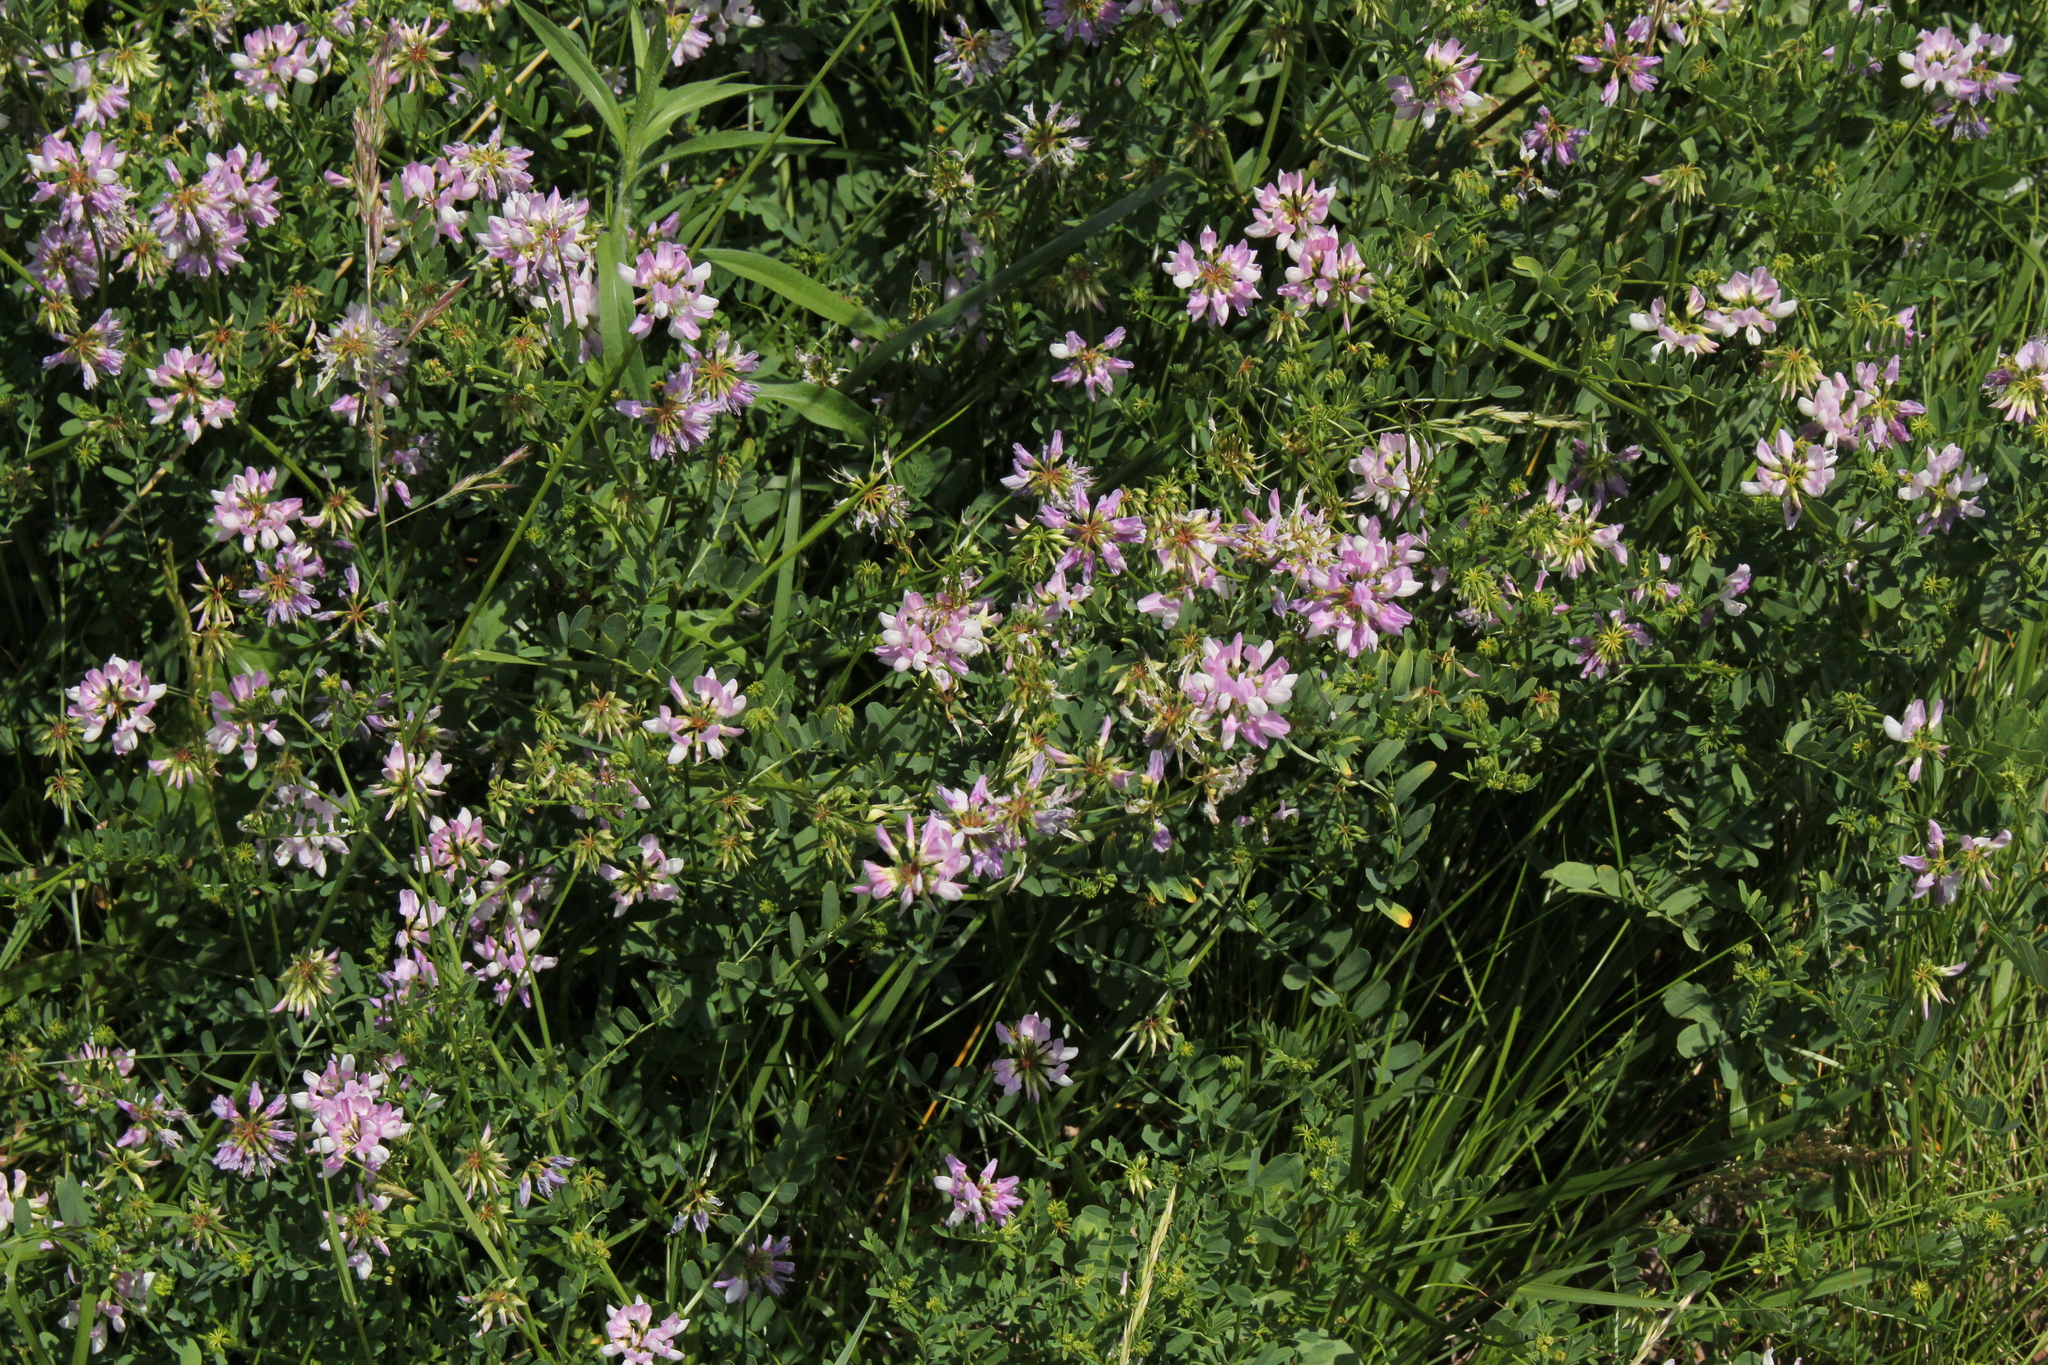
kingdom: Plantae
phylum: Tracheophyta
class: Magnoliopsida
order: Fabales
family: Fabaceae
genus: Coronilla
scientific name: Coronilla varia
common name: Crownvetch
